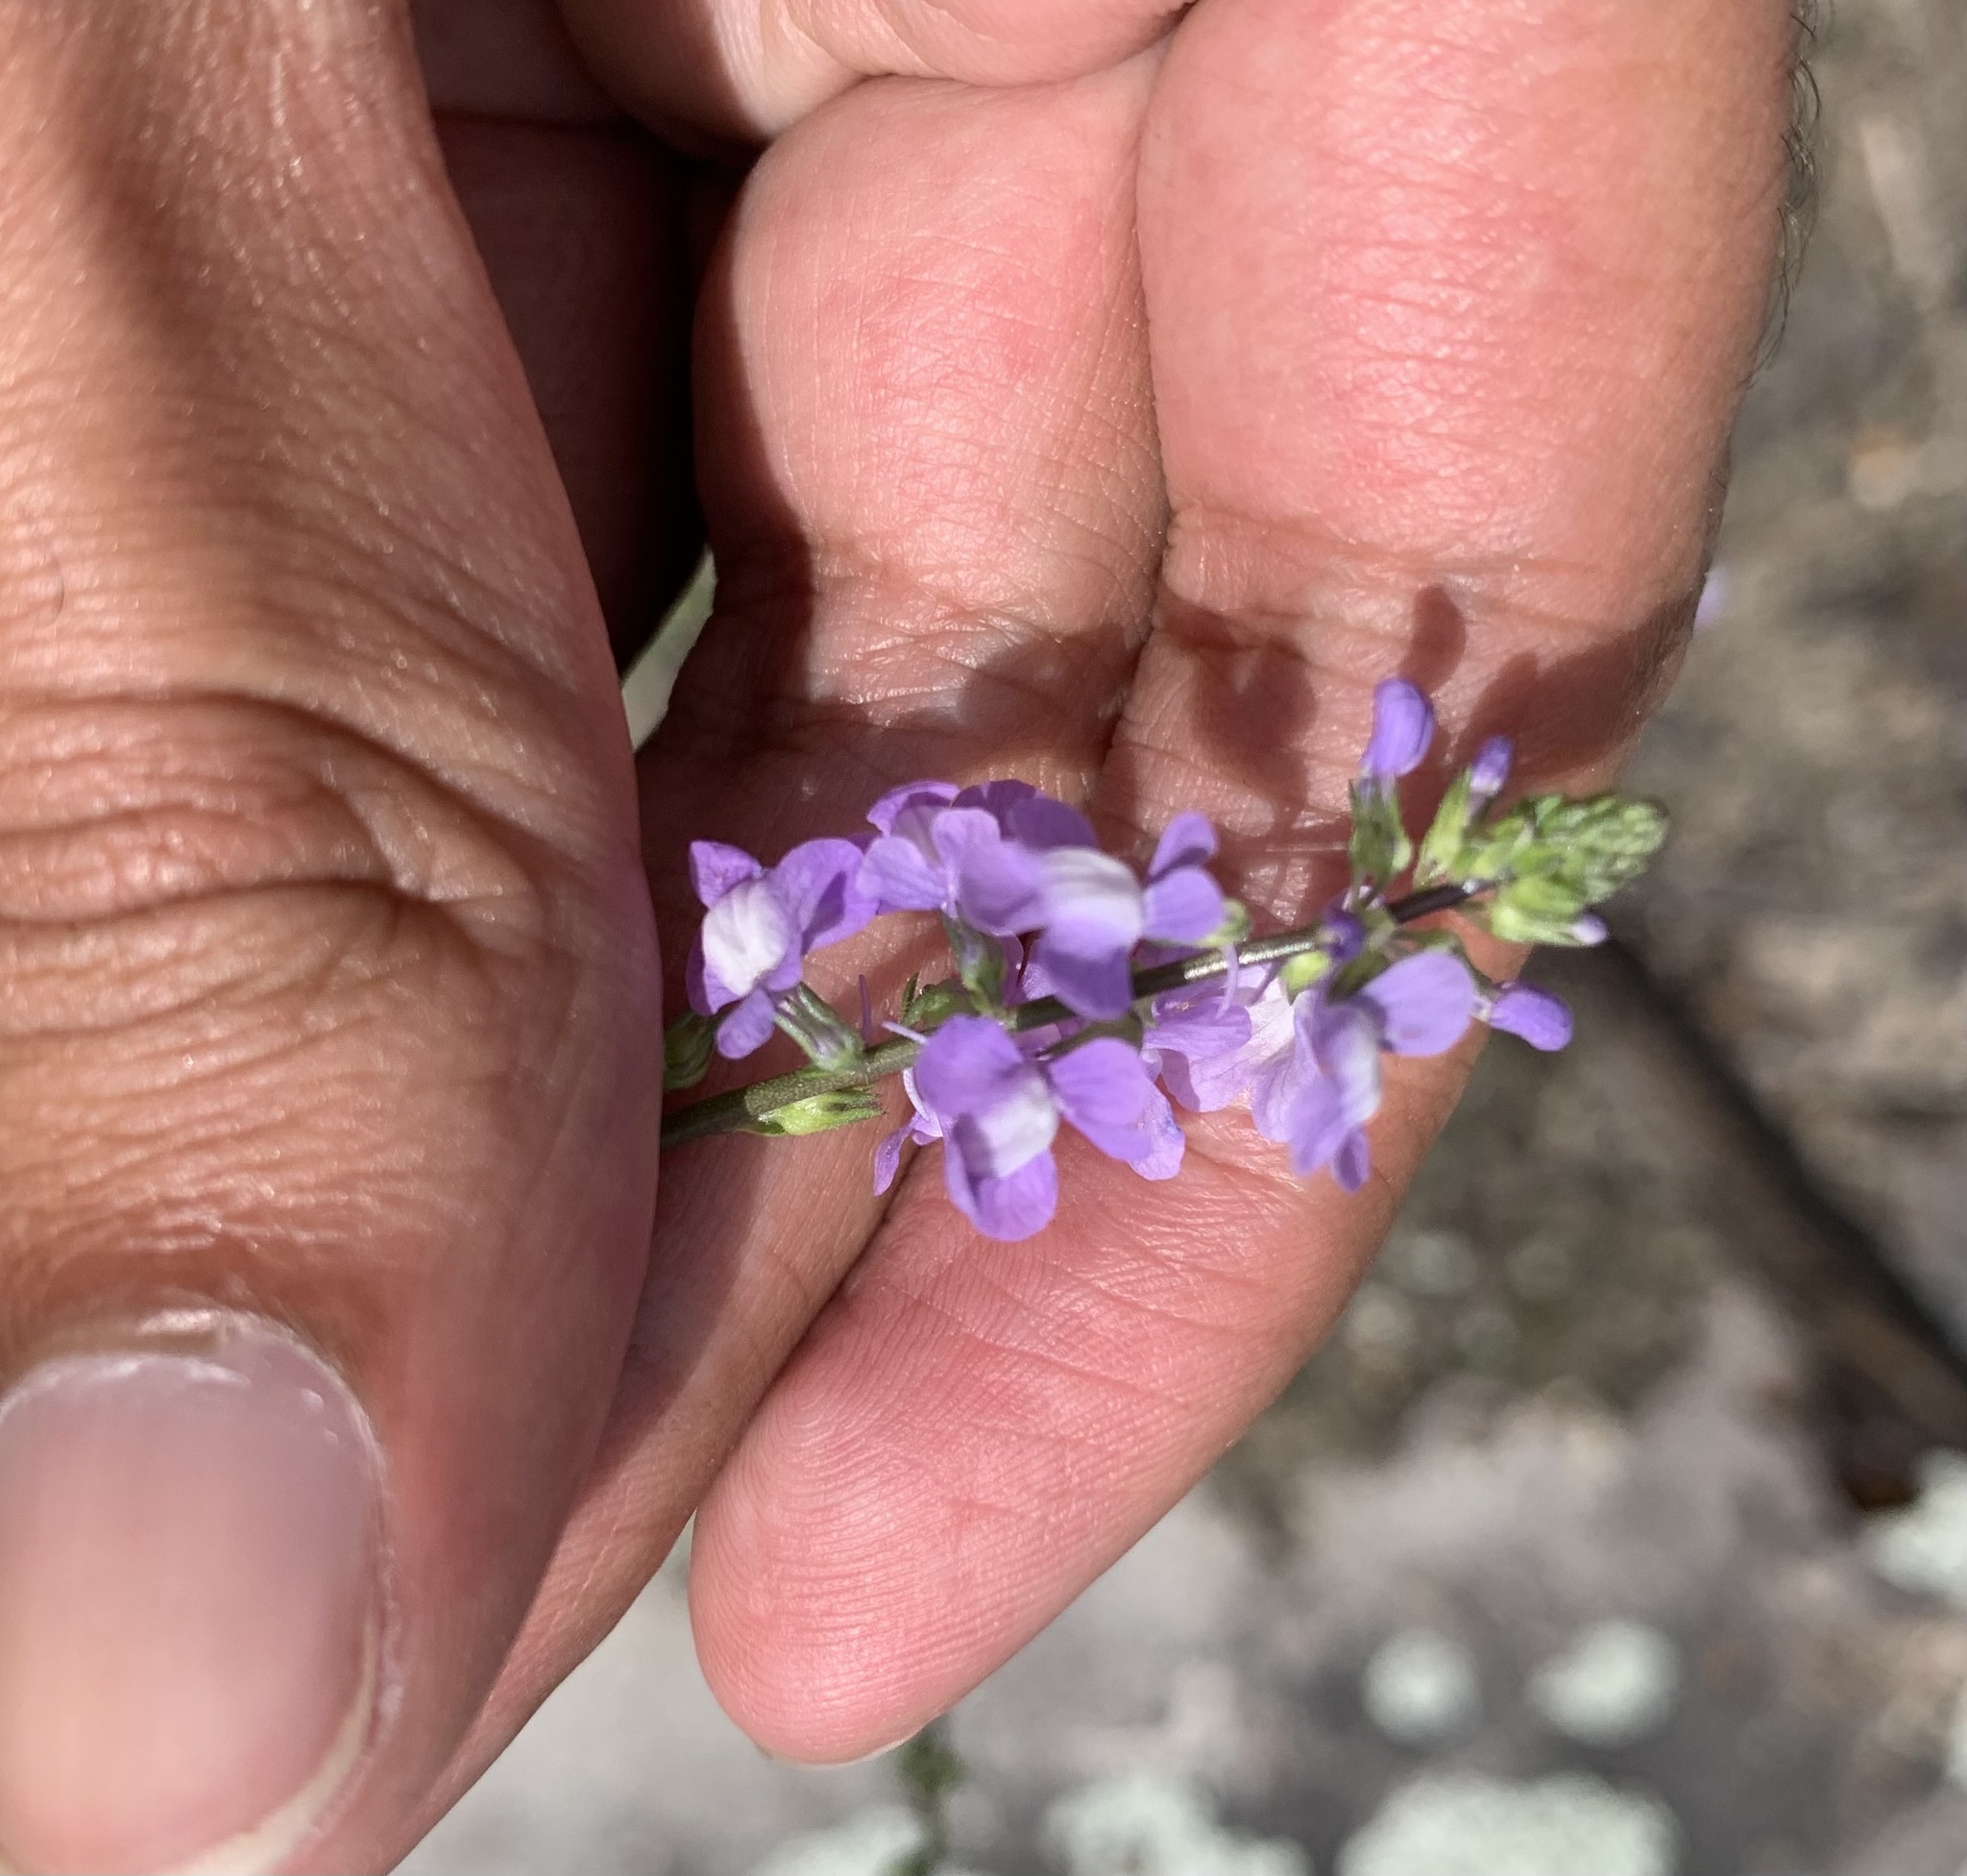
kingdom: Plantae
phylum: Tracheophyta
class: Magnoliopsida
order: Lamiales
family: Plantaginaceae
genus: Nuttallanthus
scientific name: Nuttallanthus canadensis
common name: Blue toadflax
